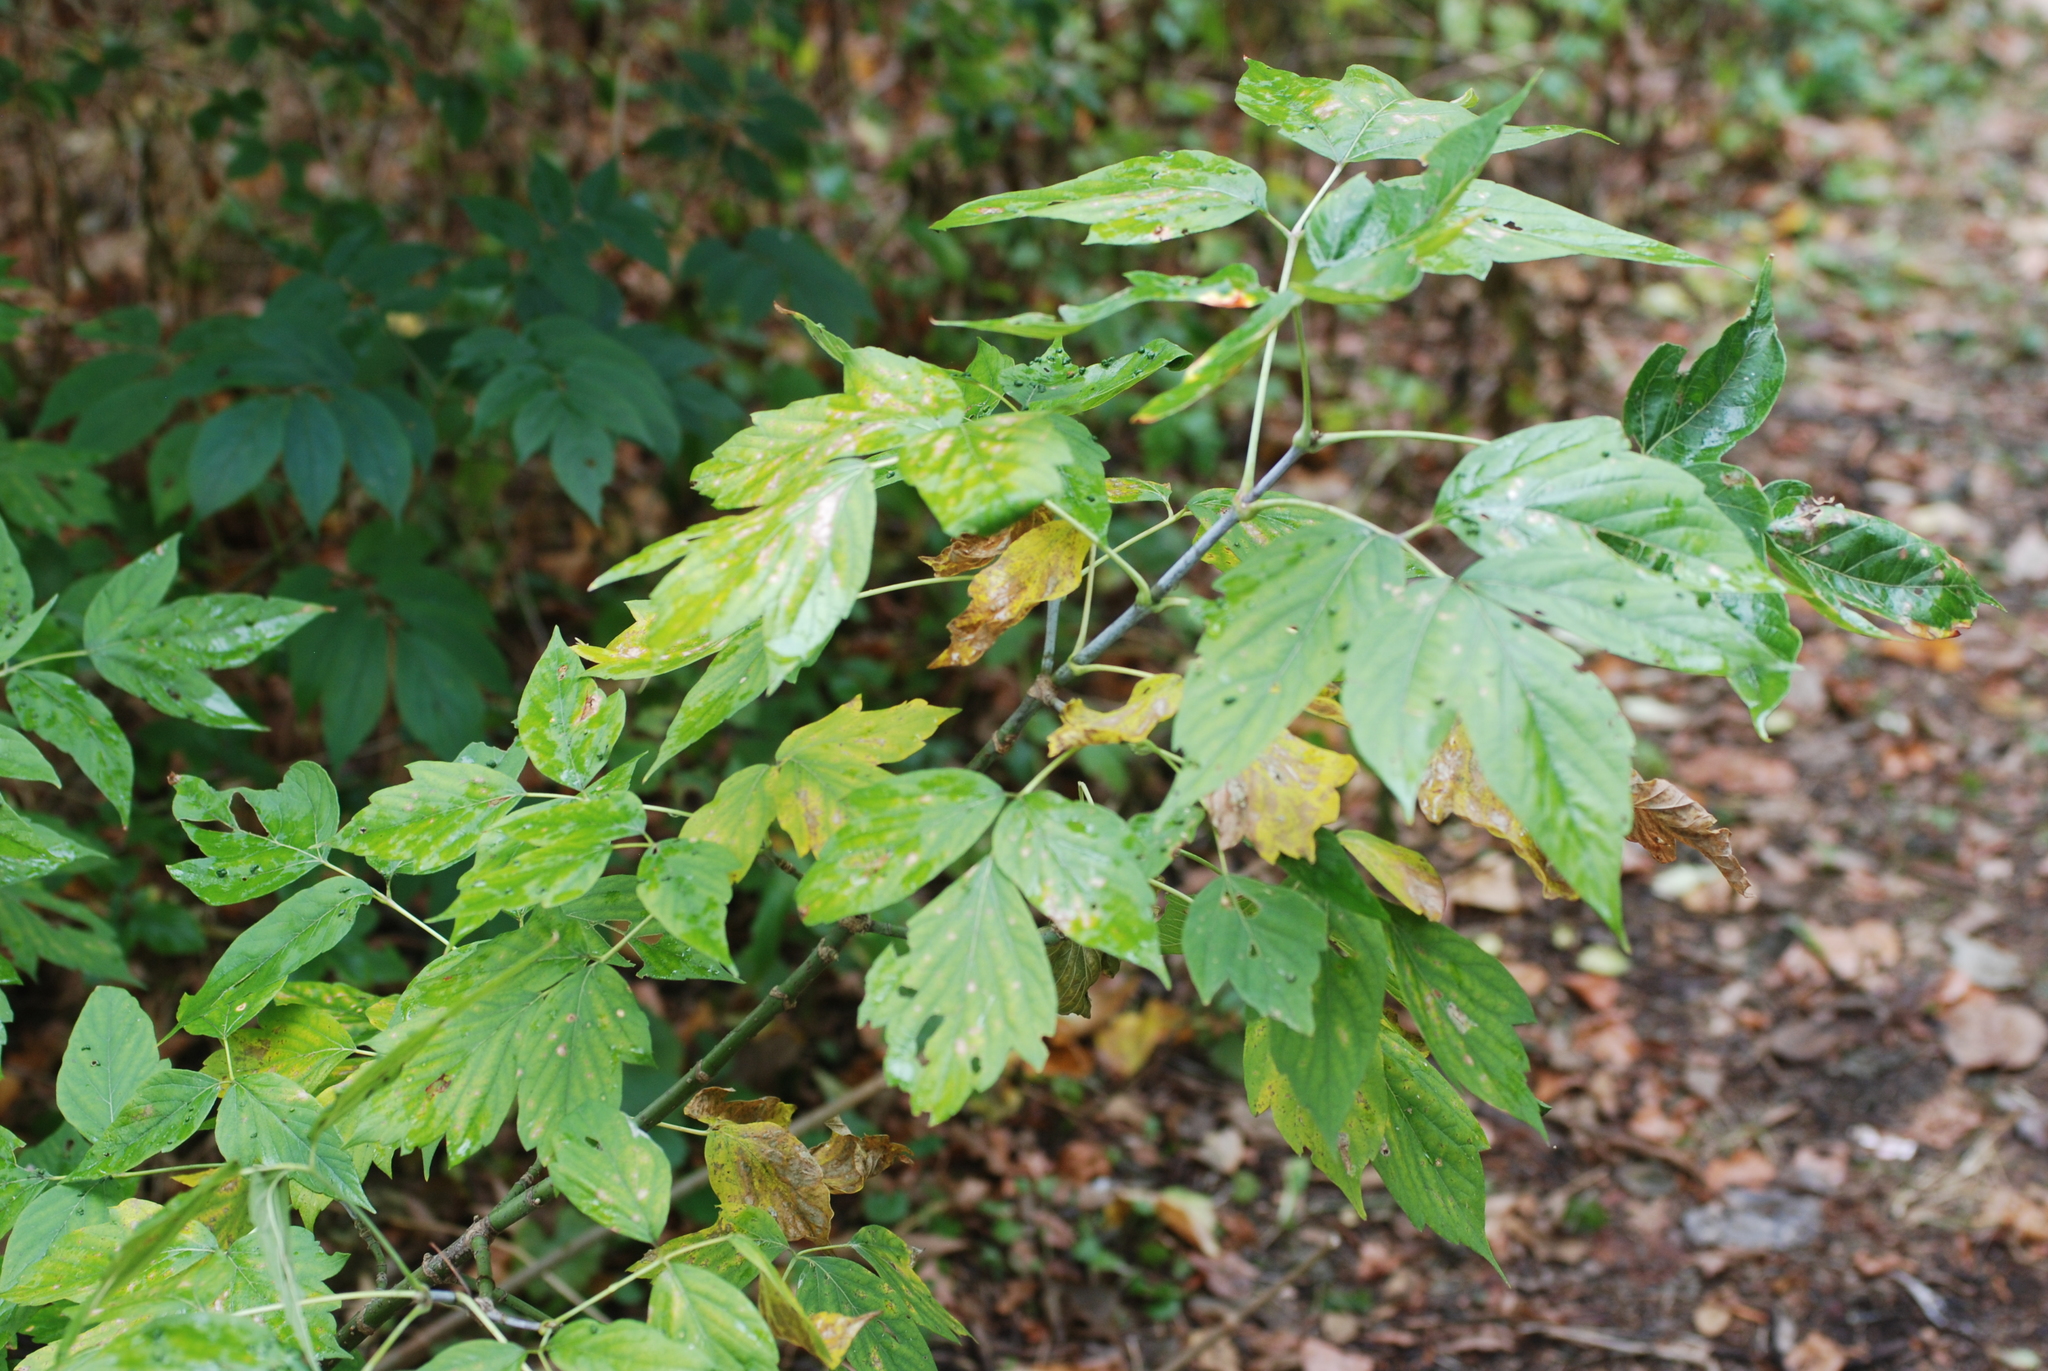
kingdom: Plantae
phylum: Tracheophyta
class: Magnoliopsida
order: Sapindales
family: Sapindaceae
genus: Acer
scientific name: Acer negundo
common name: Ashleaf maple
